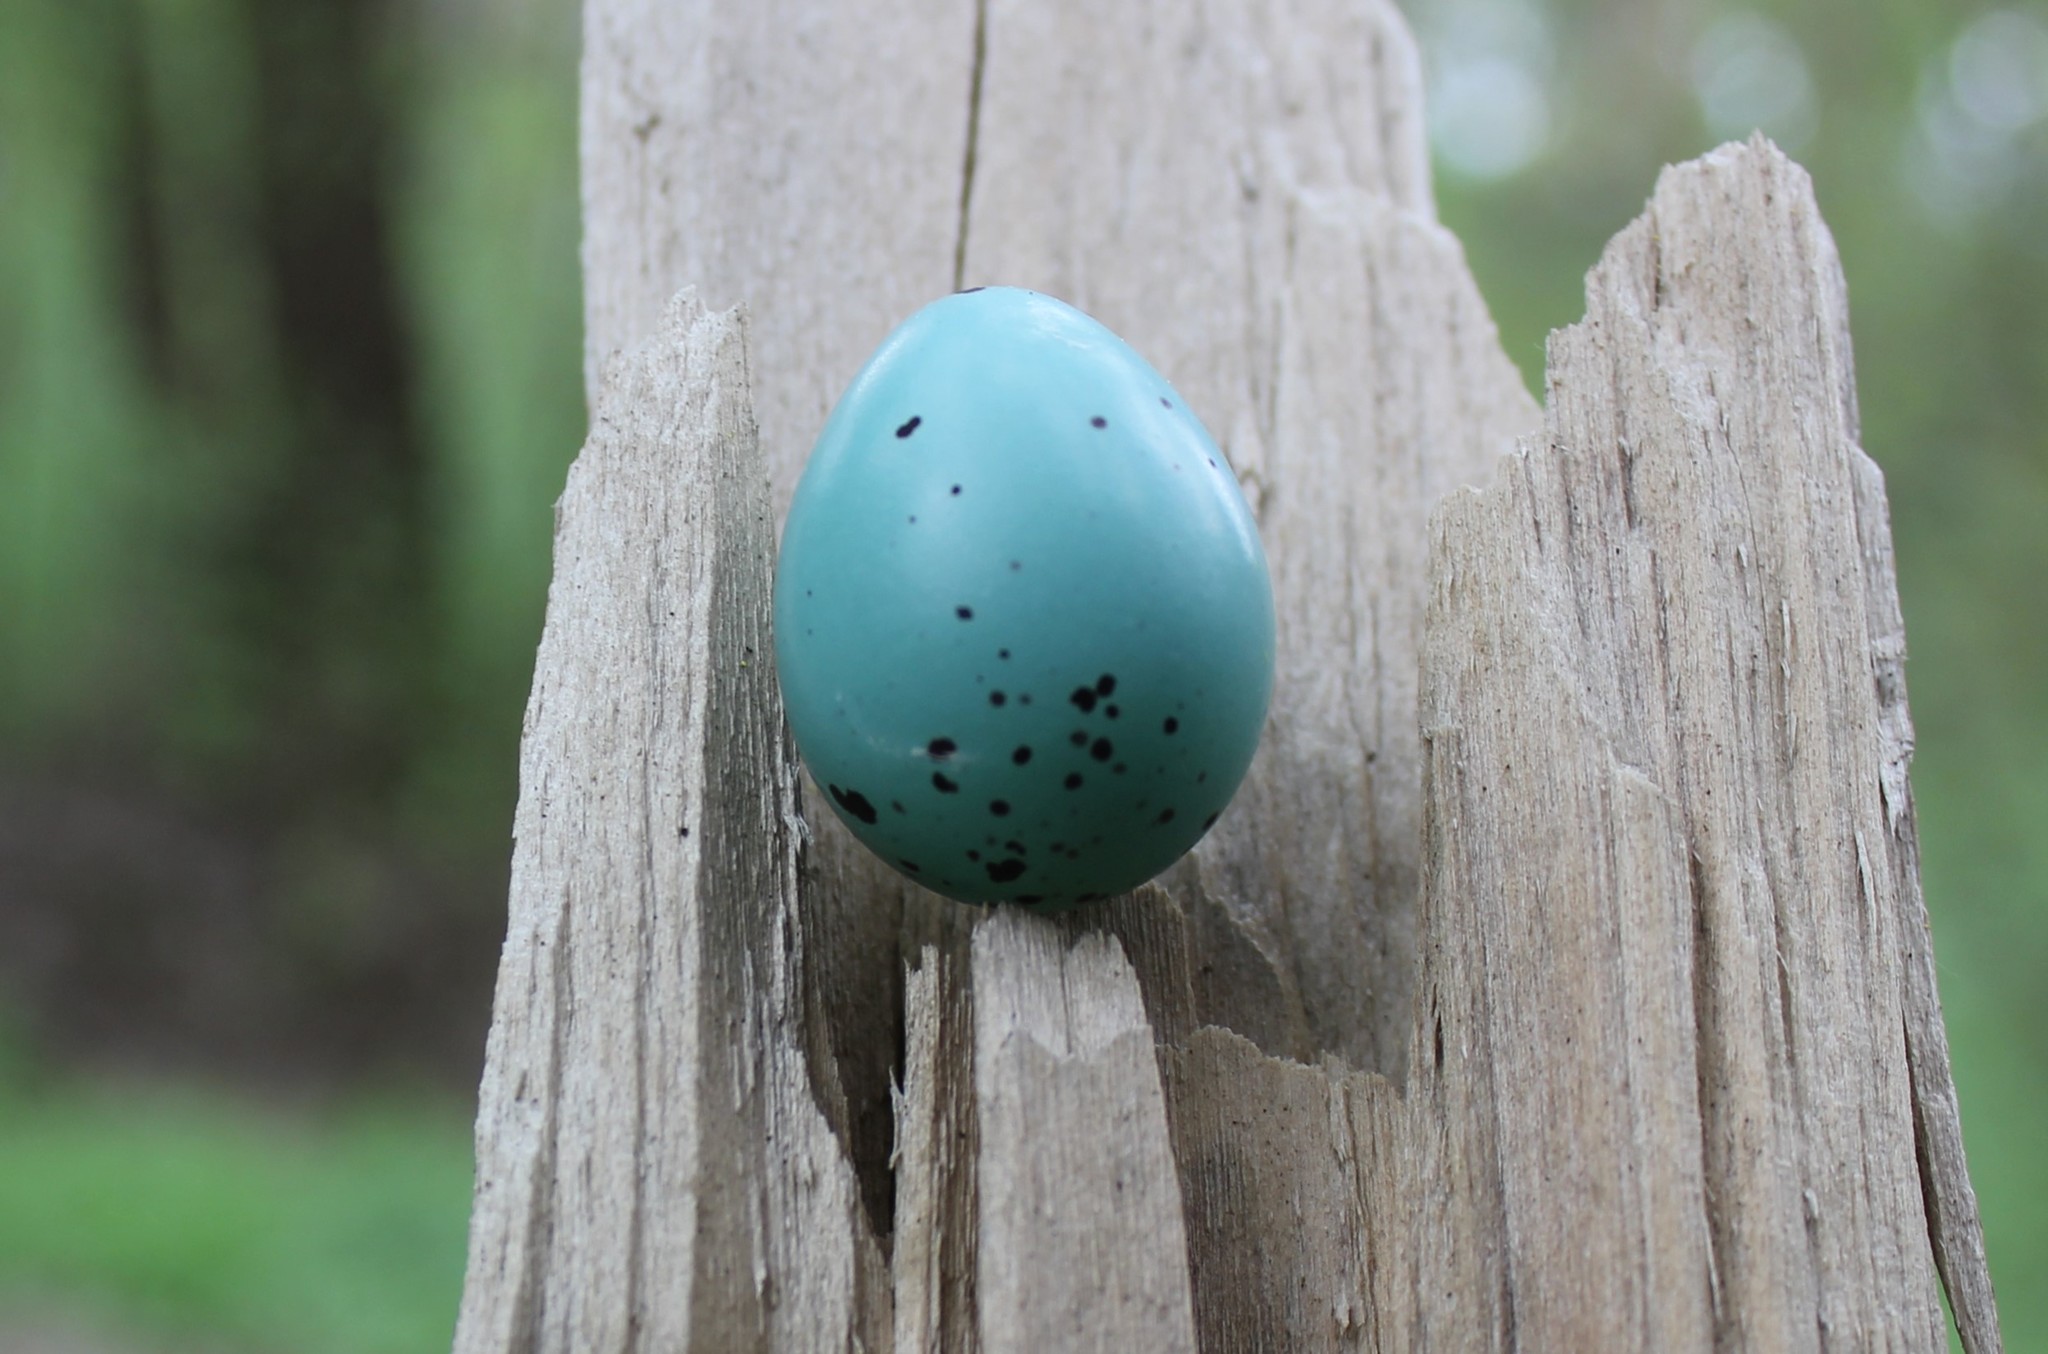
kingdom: Animalia
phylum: Chordata
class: Aves
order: Passeriformes
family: Turdidae
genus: Turdus
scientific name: Turdus philomelos
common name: Song thrush
